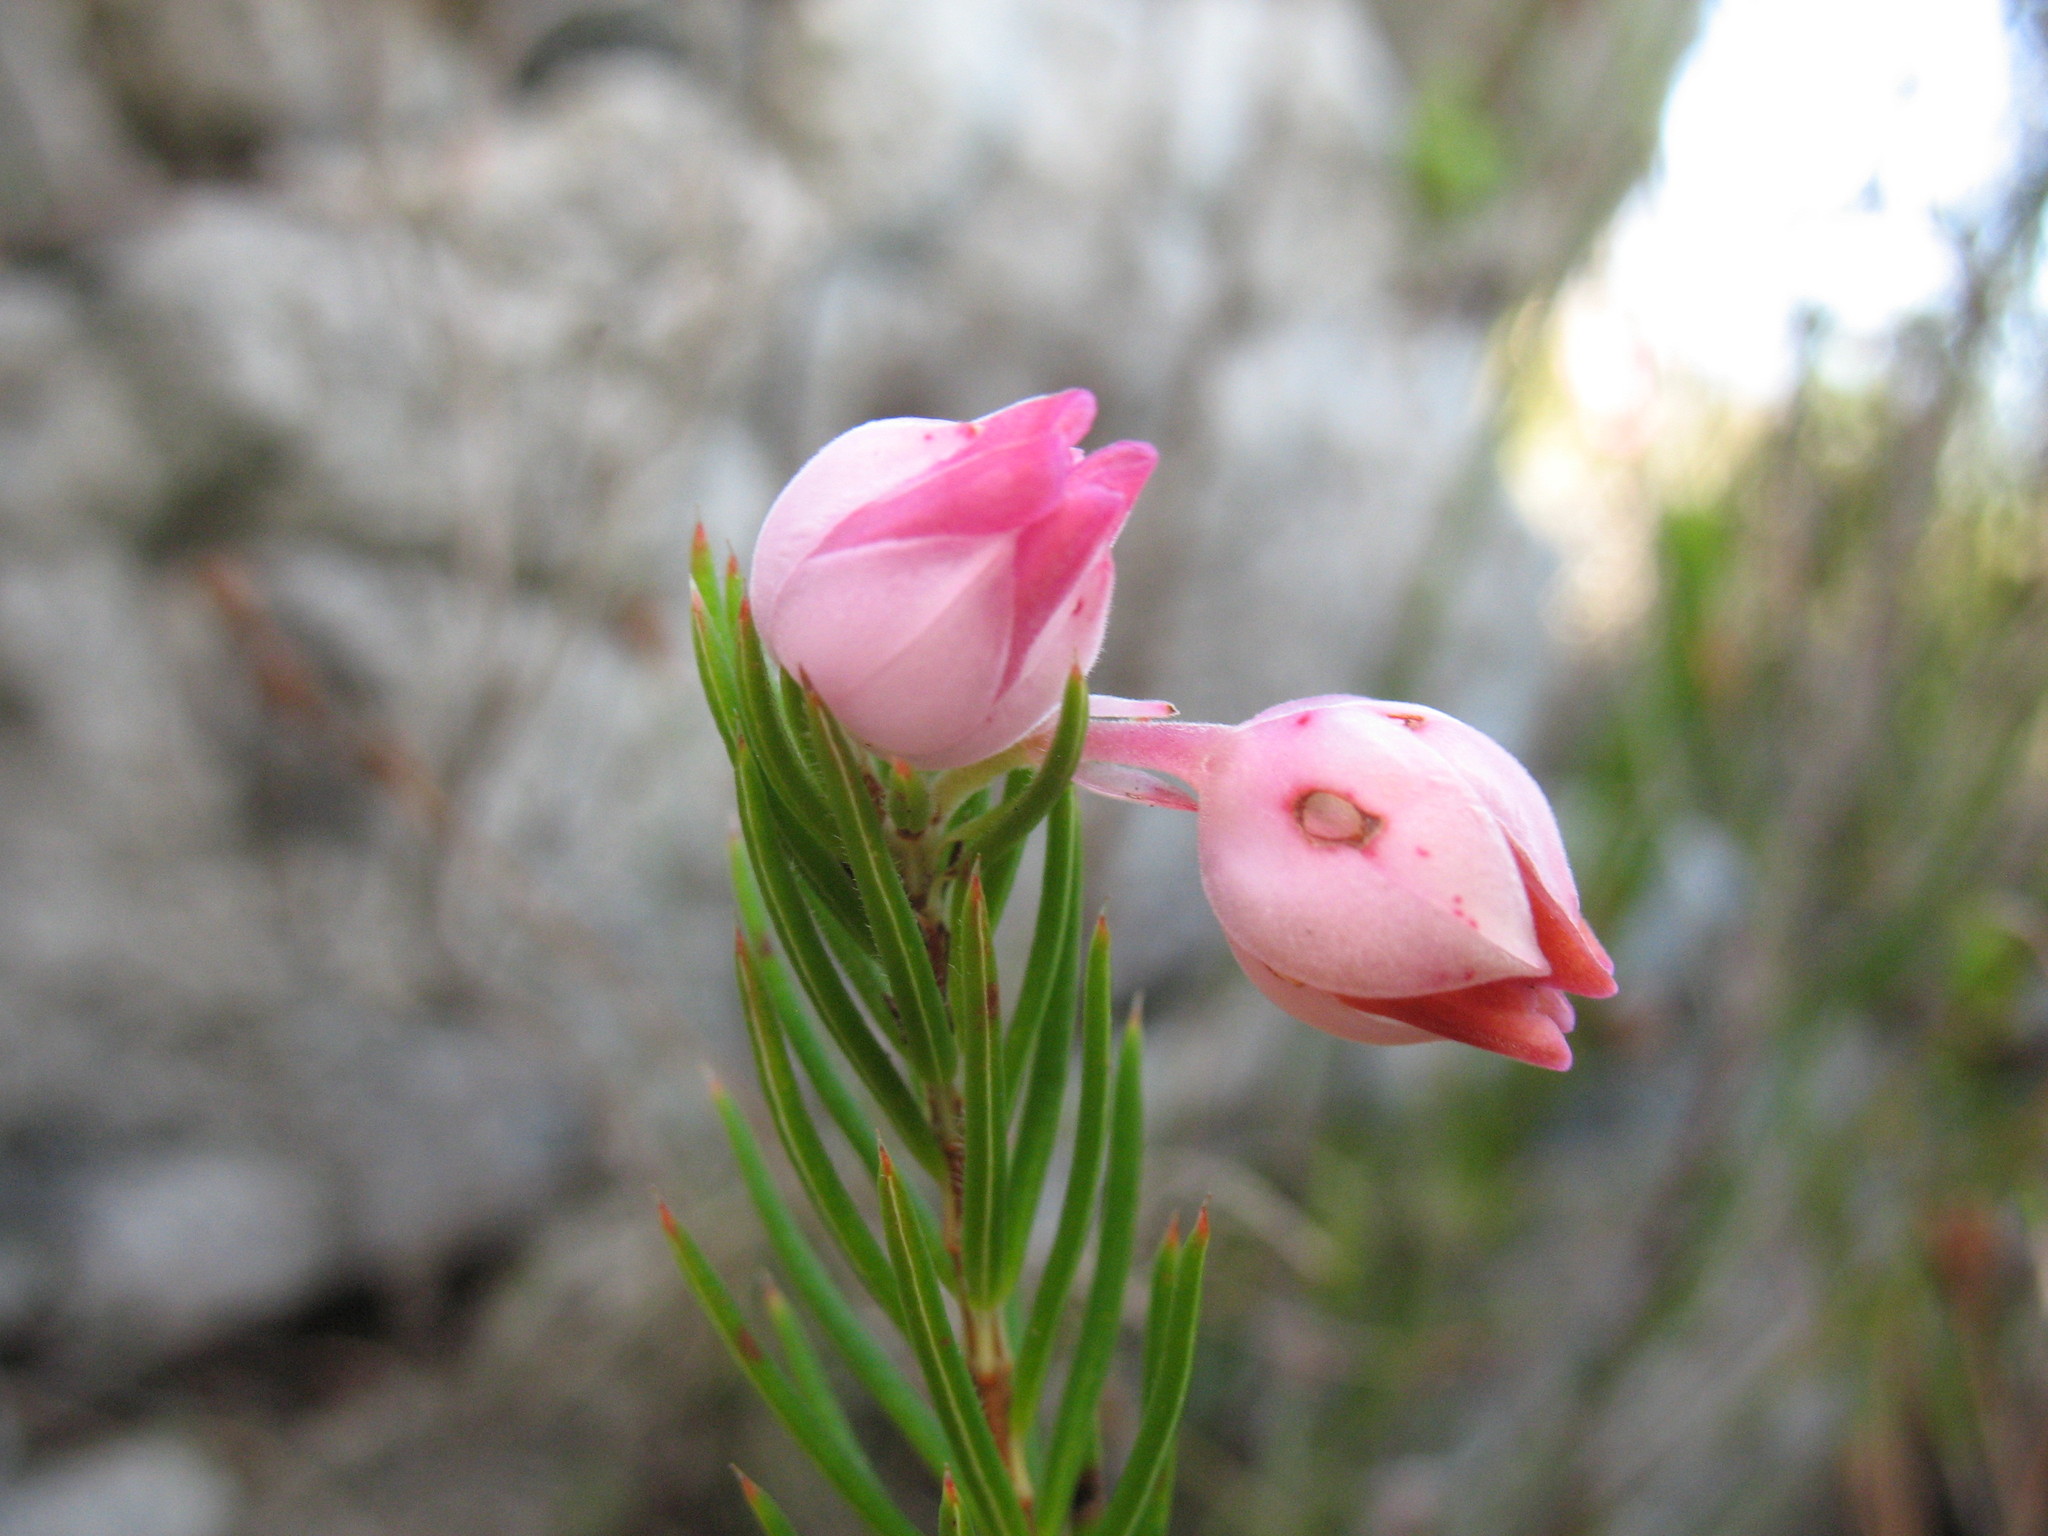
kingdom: Plantae
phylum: Tracheophyta
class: Magnoliopsida
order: Ericales
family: Ericaceae
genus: Erica
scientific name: Erica holosericea
